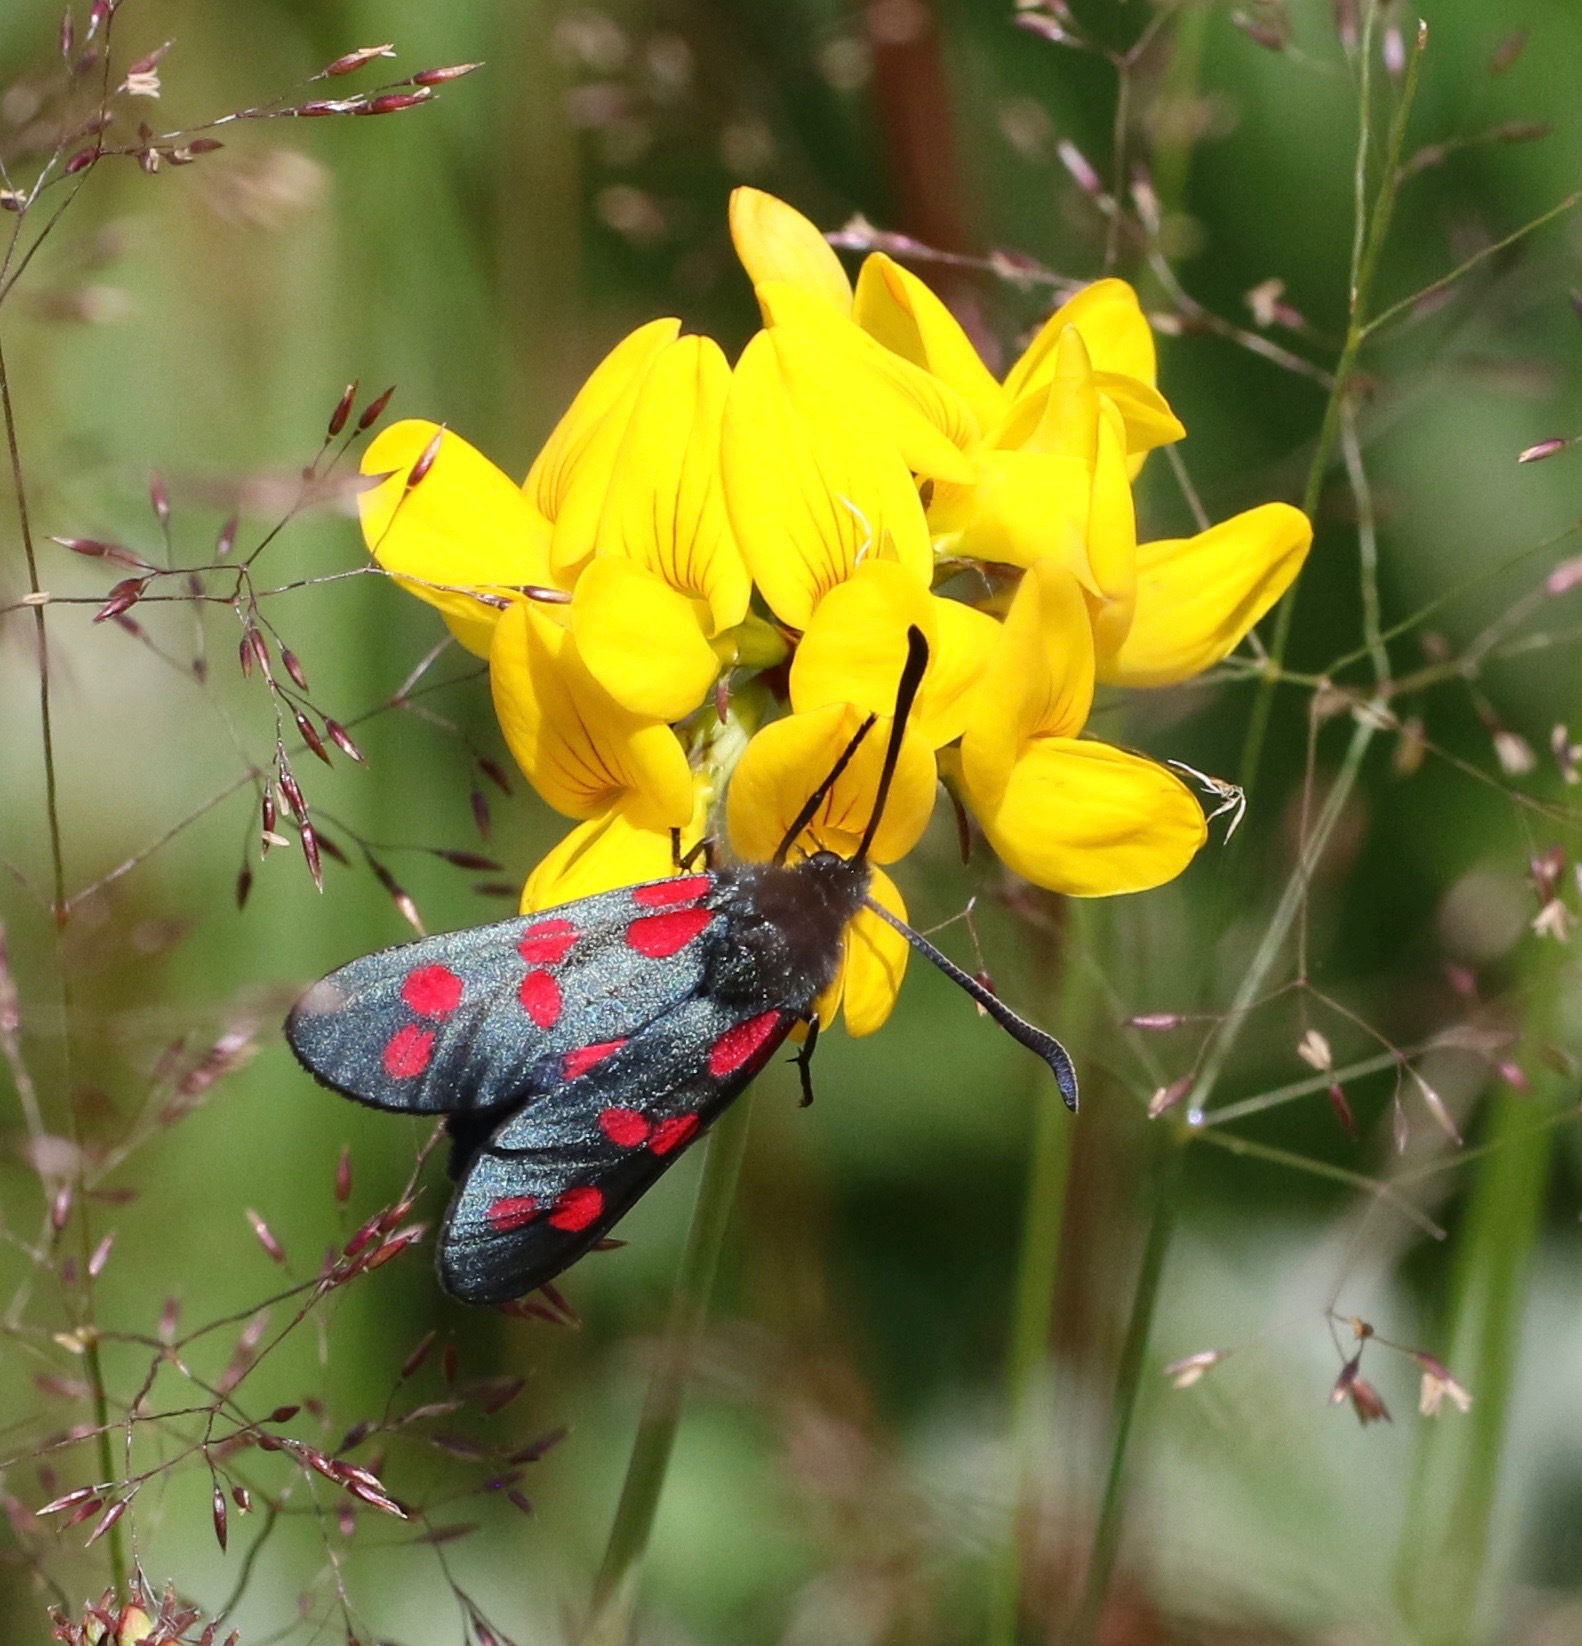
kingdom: Animalia
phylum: Arthropoda
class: Insecta
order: Lepidoptera
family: Zygaenidae
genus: Zygaena
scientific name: Zygaena filipendulae
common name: Six-spot burnet
